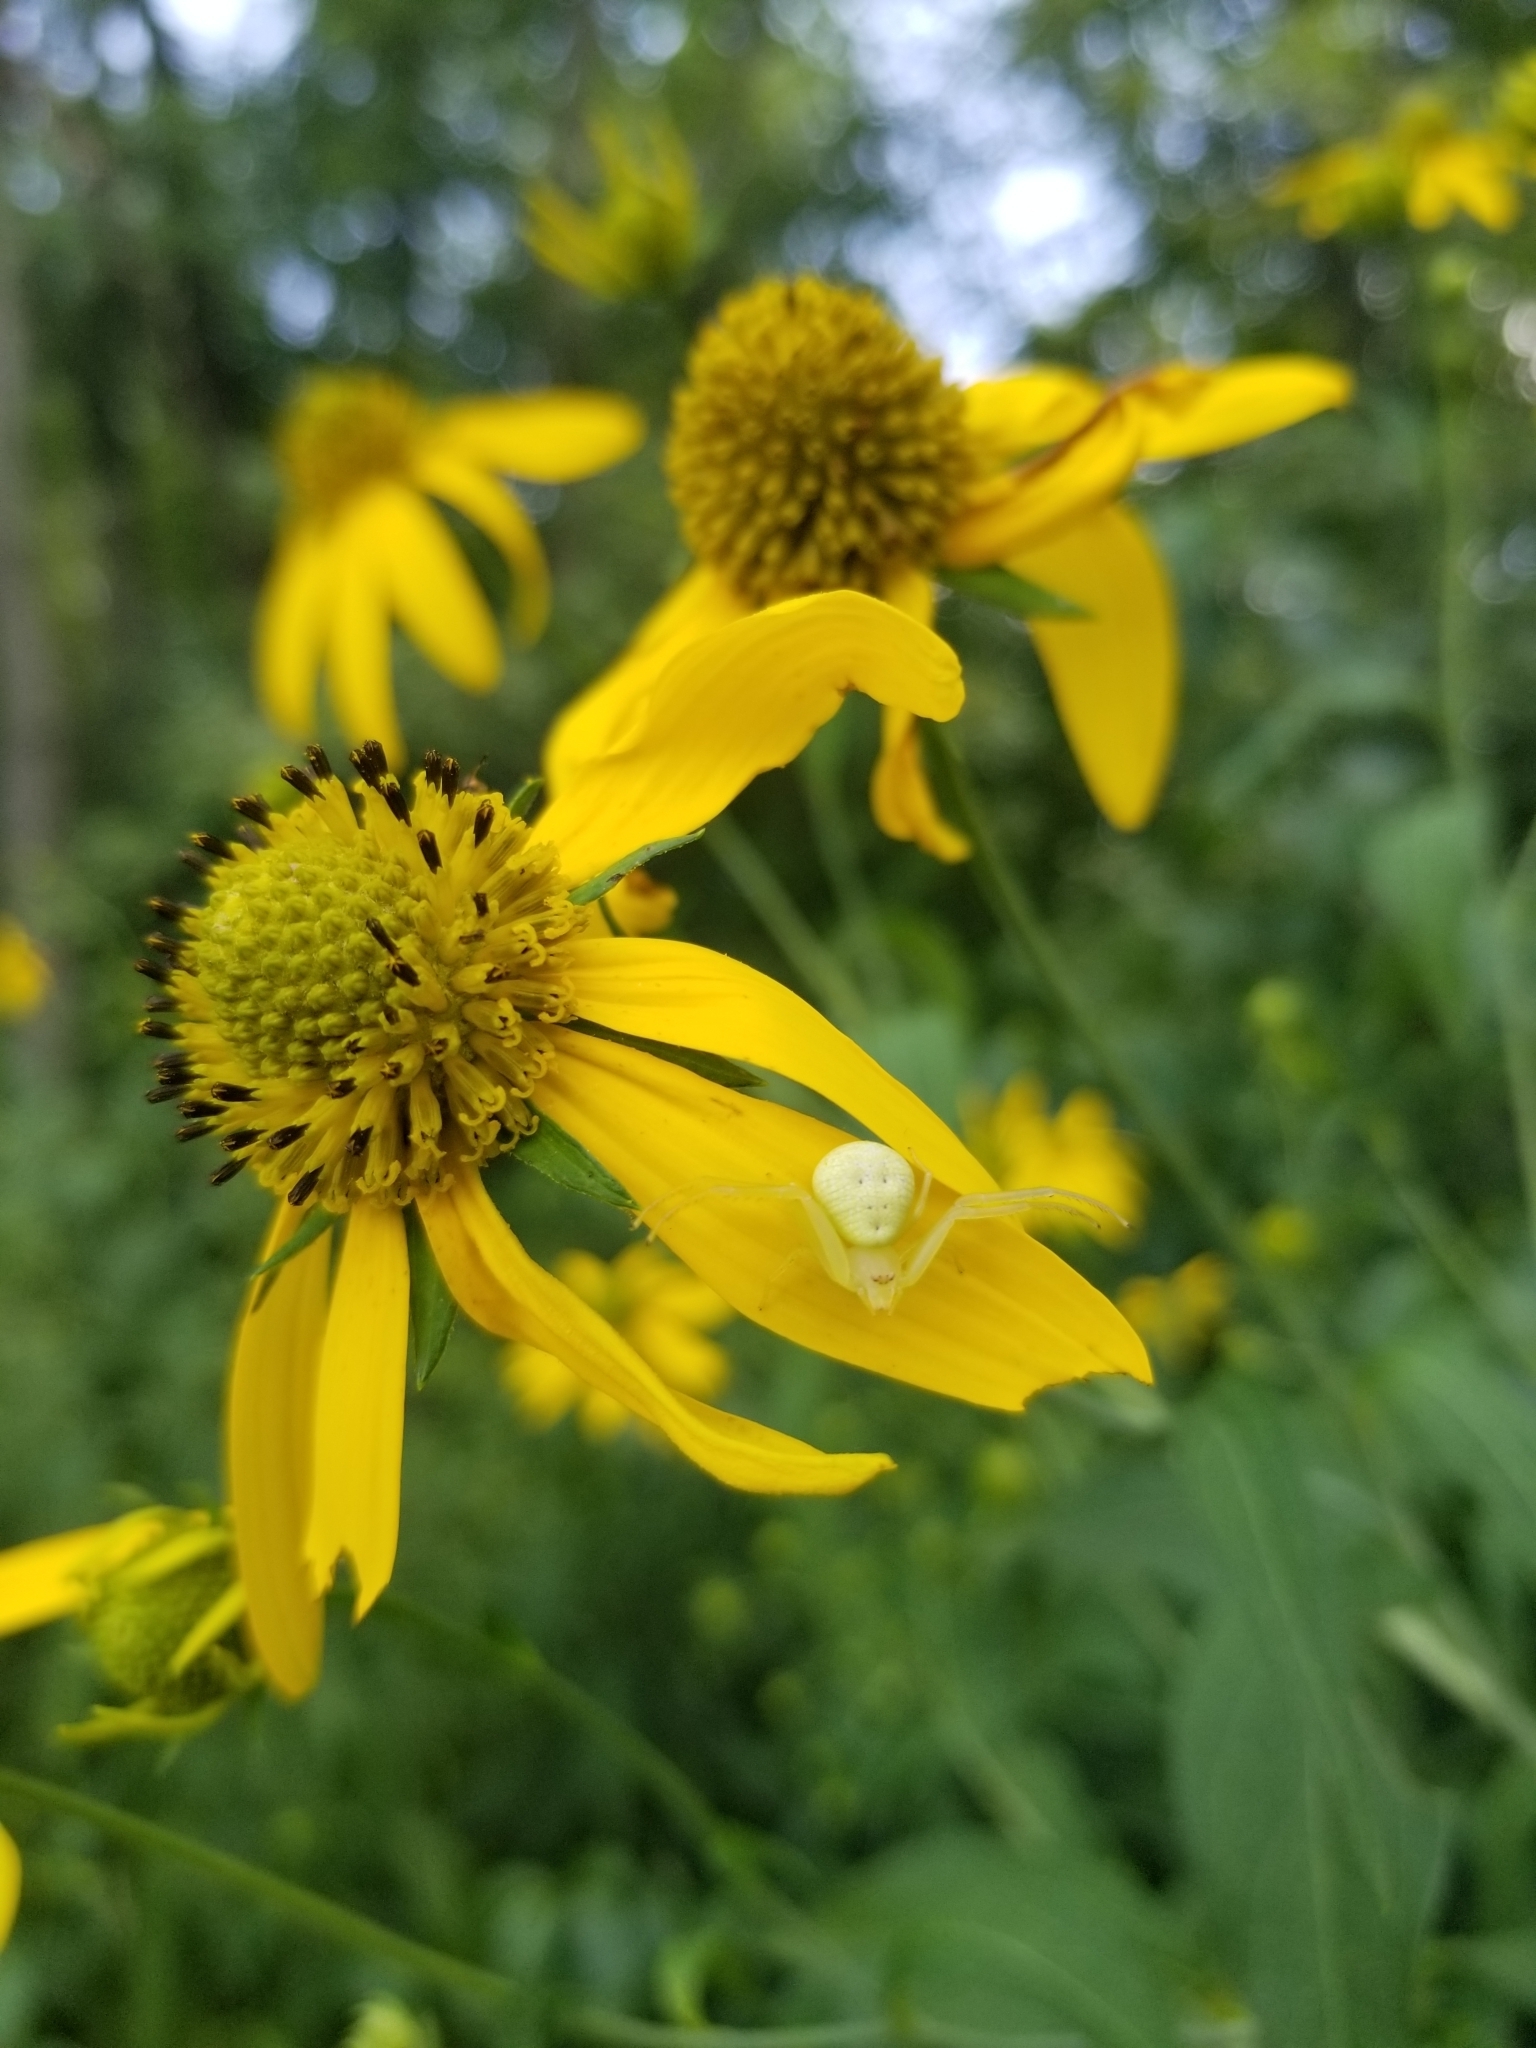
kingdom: Animalia
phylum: Arthropoda
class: Arachnida
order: Araneae
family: Thomisidae
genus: Misumessus
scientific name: Misumessus oblongus
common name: American green crab spider
